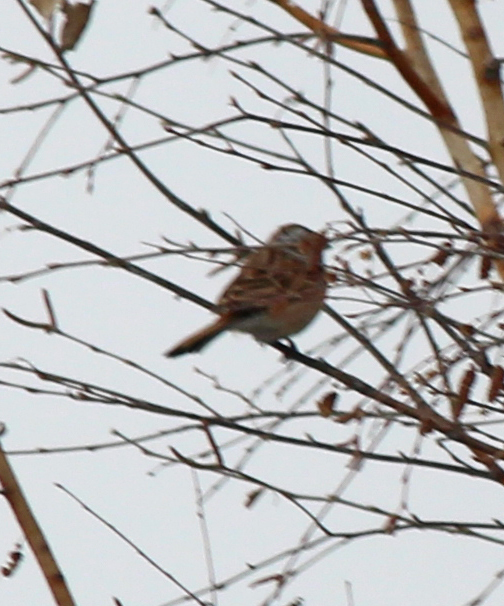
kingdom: Animalia
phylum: Chordata
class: Aves
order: Passeriformes
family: Emberizidae
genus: Emberiza
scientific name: Emberiza cioides
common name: Meadow bunting
